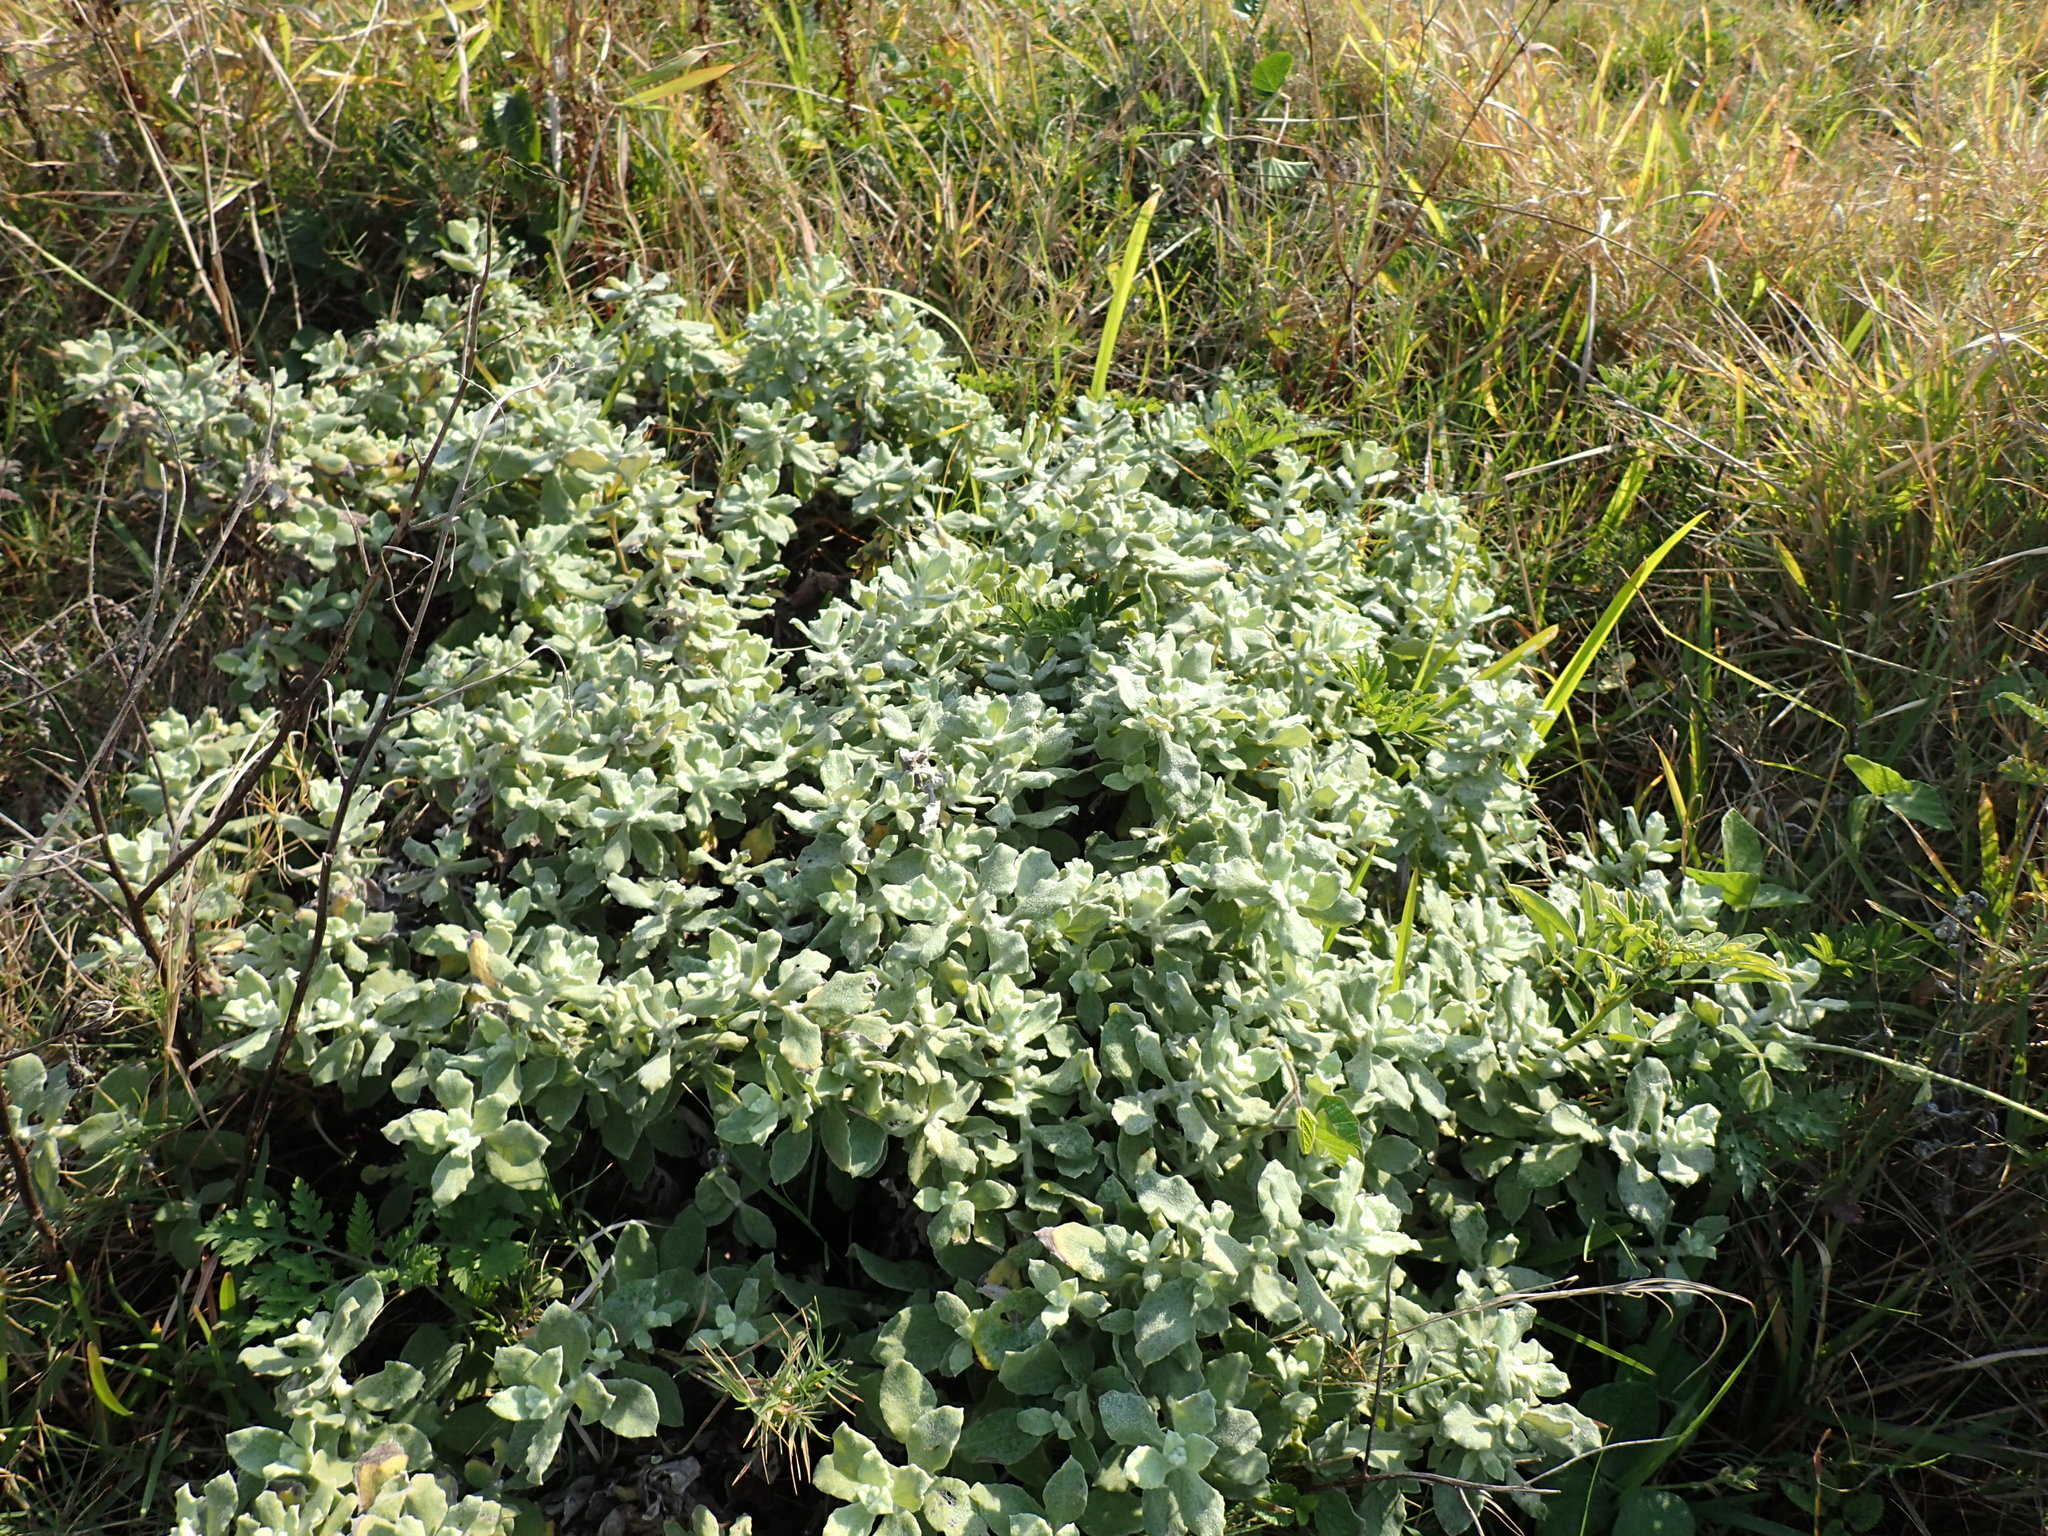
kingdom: Plantae
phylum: Tracheophyta
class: Magnoliopsida
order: Asterales
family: Asteraceae
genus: Helichrysum
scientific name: Helichrysum panduratum
